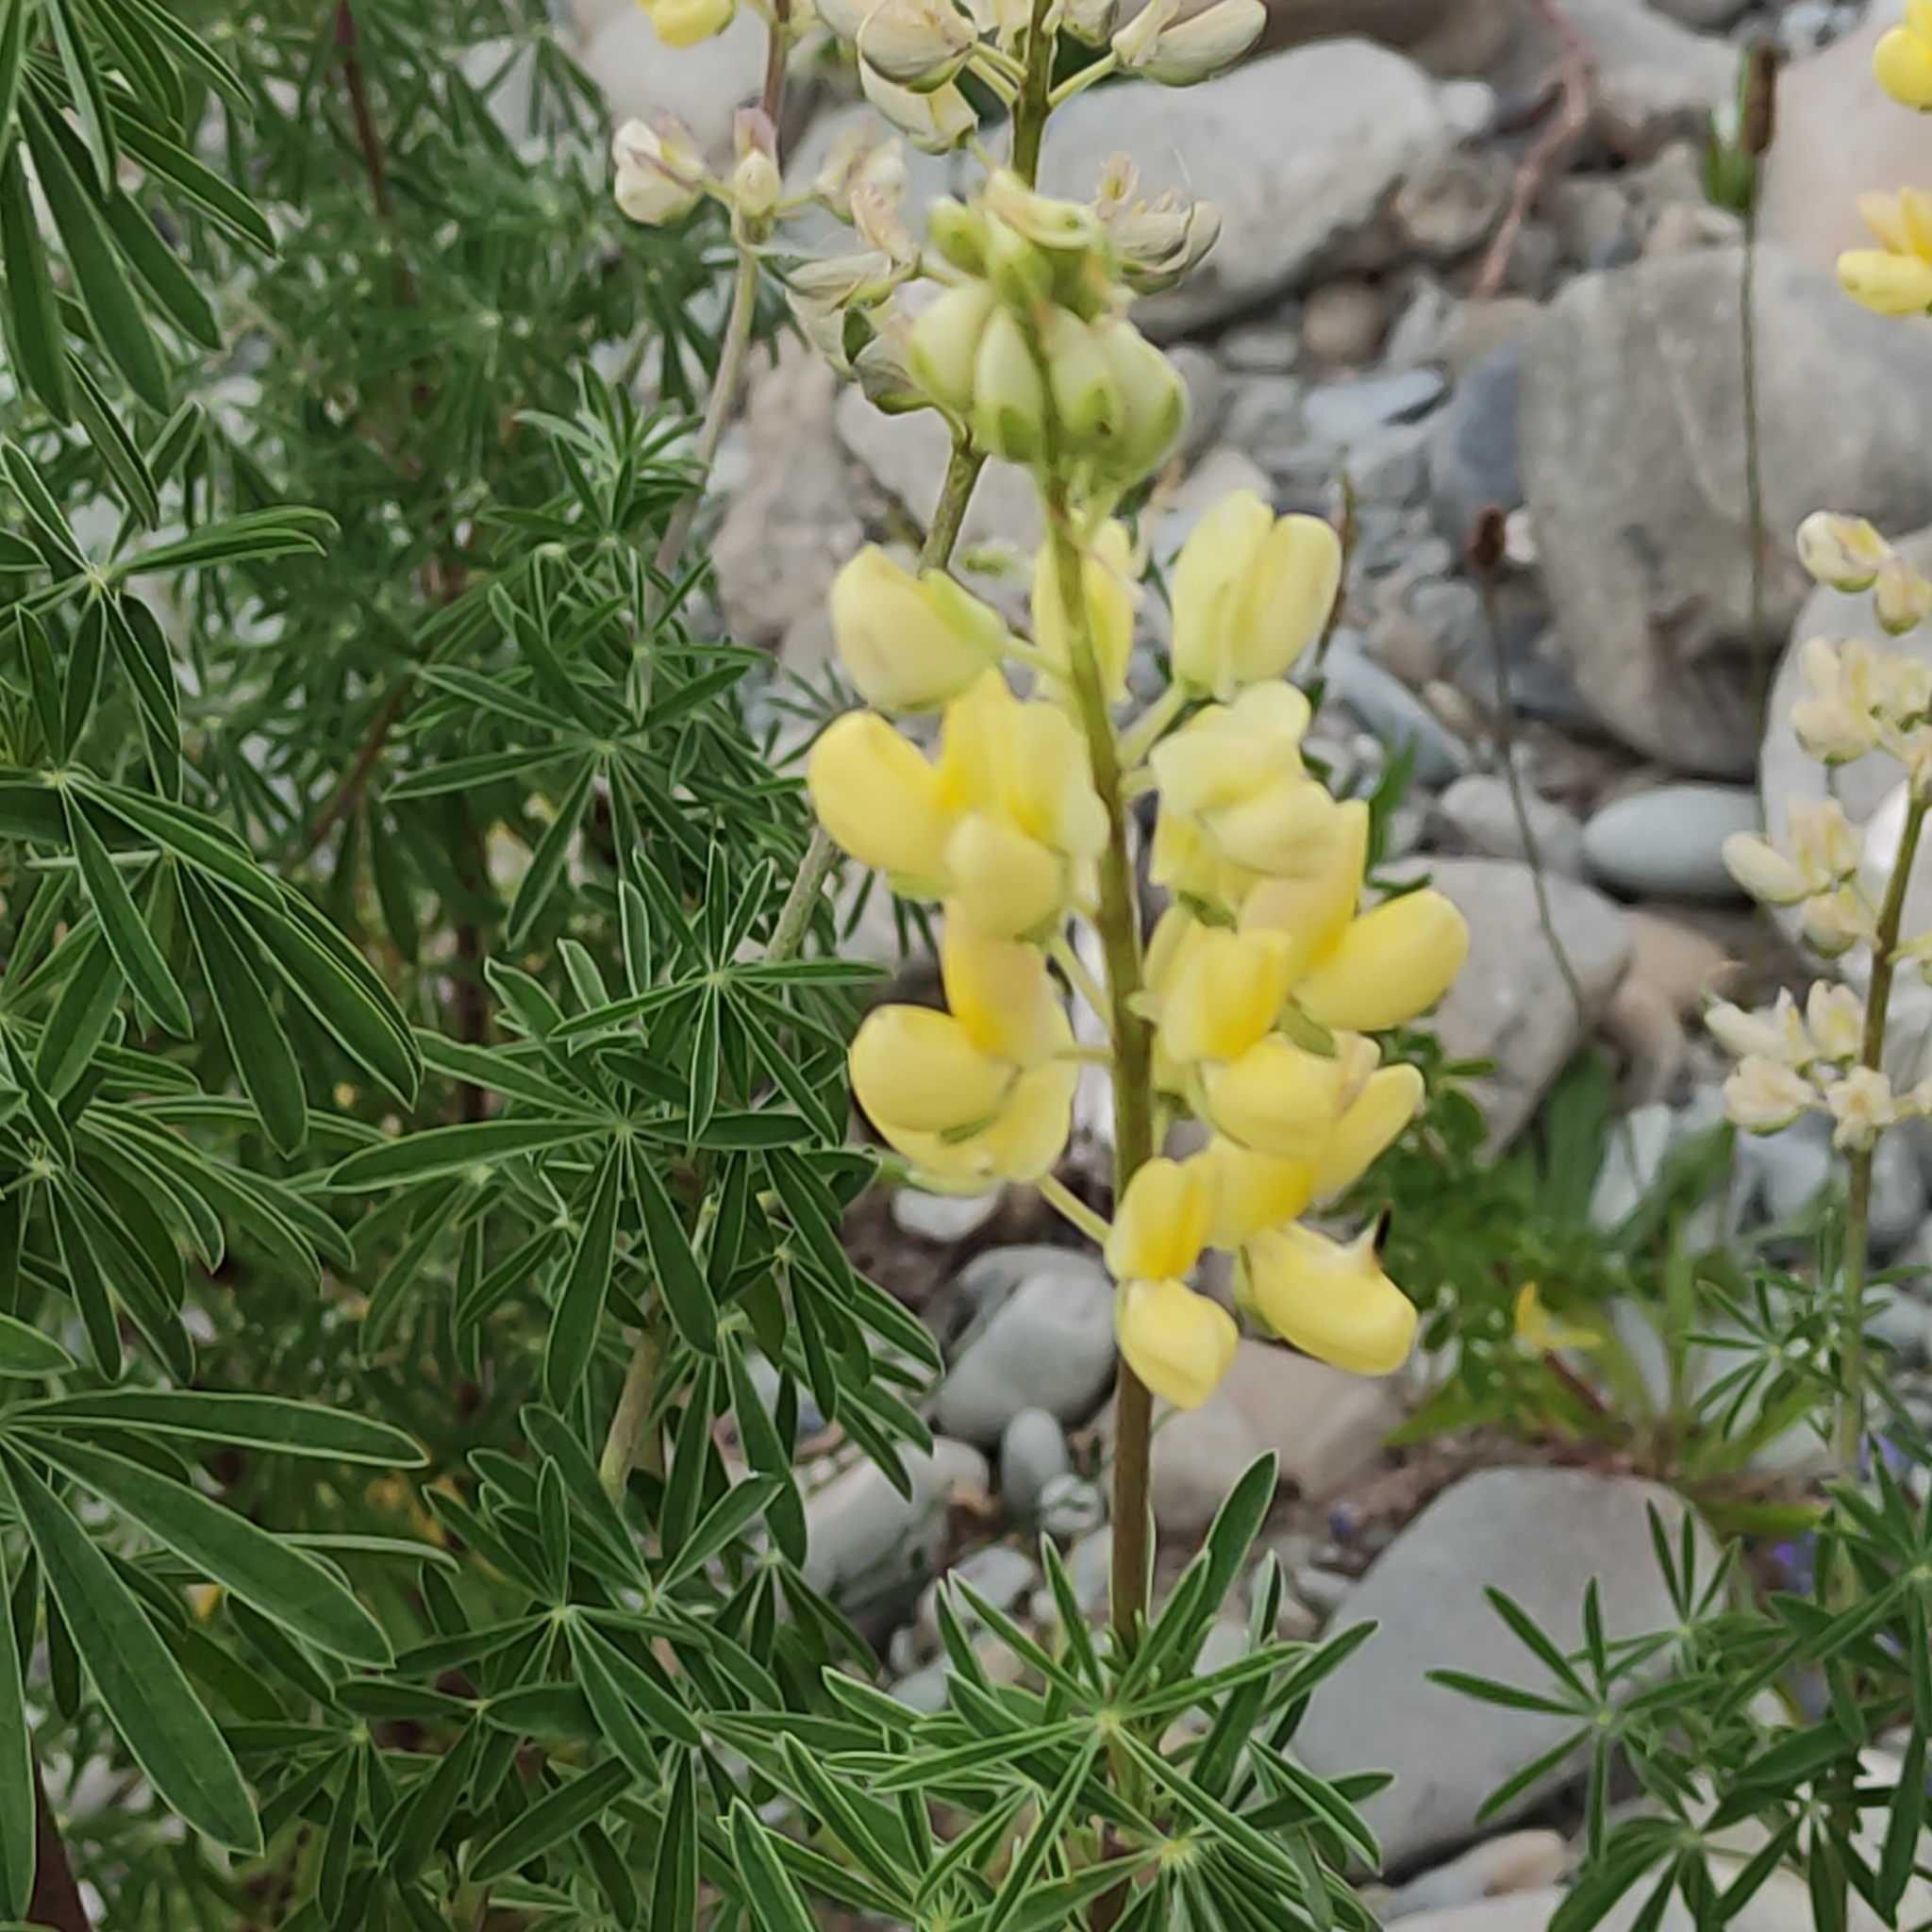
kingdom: Plantae
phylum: Tracheophyta
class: Magnoliopsida
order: Fabales
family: Fabaceae
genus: Lupinus
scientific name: Lupinus arboreus
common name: Yellow bush lupine
